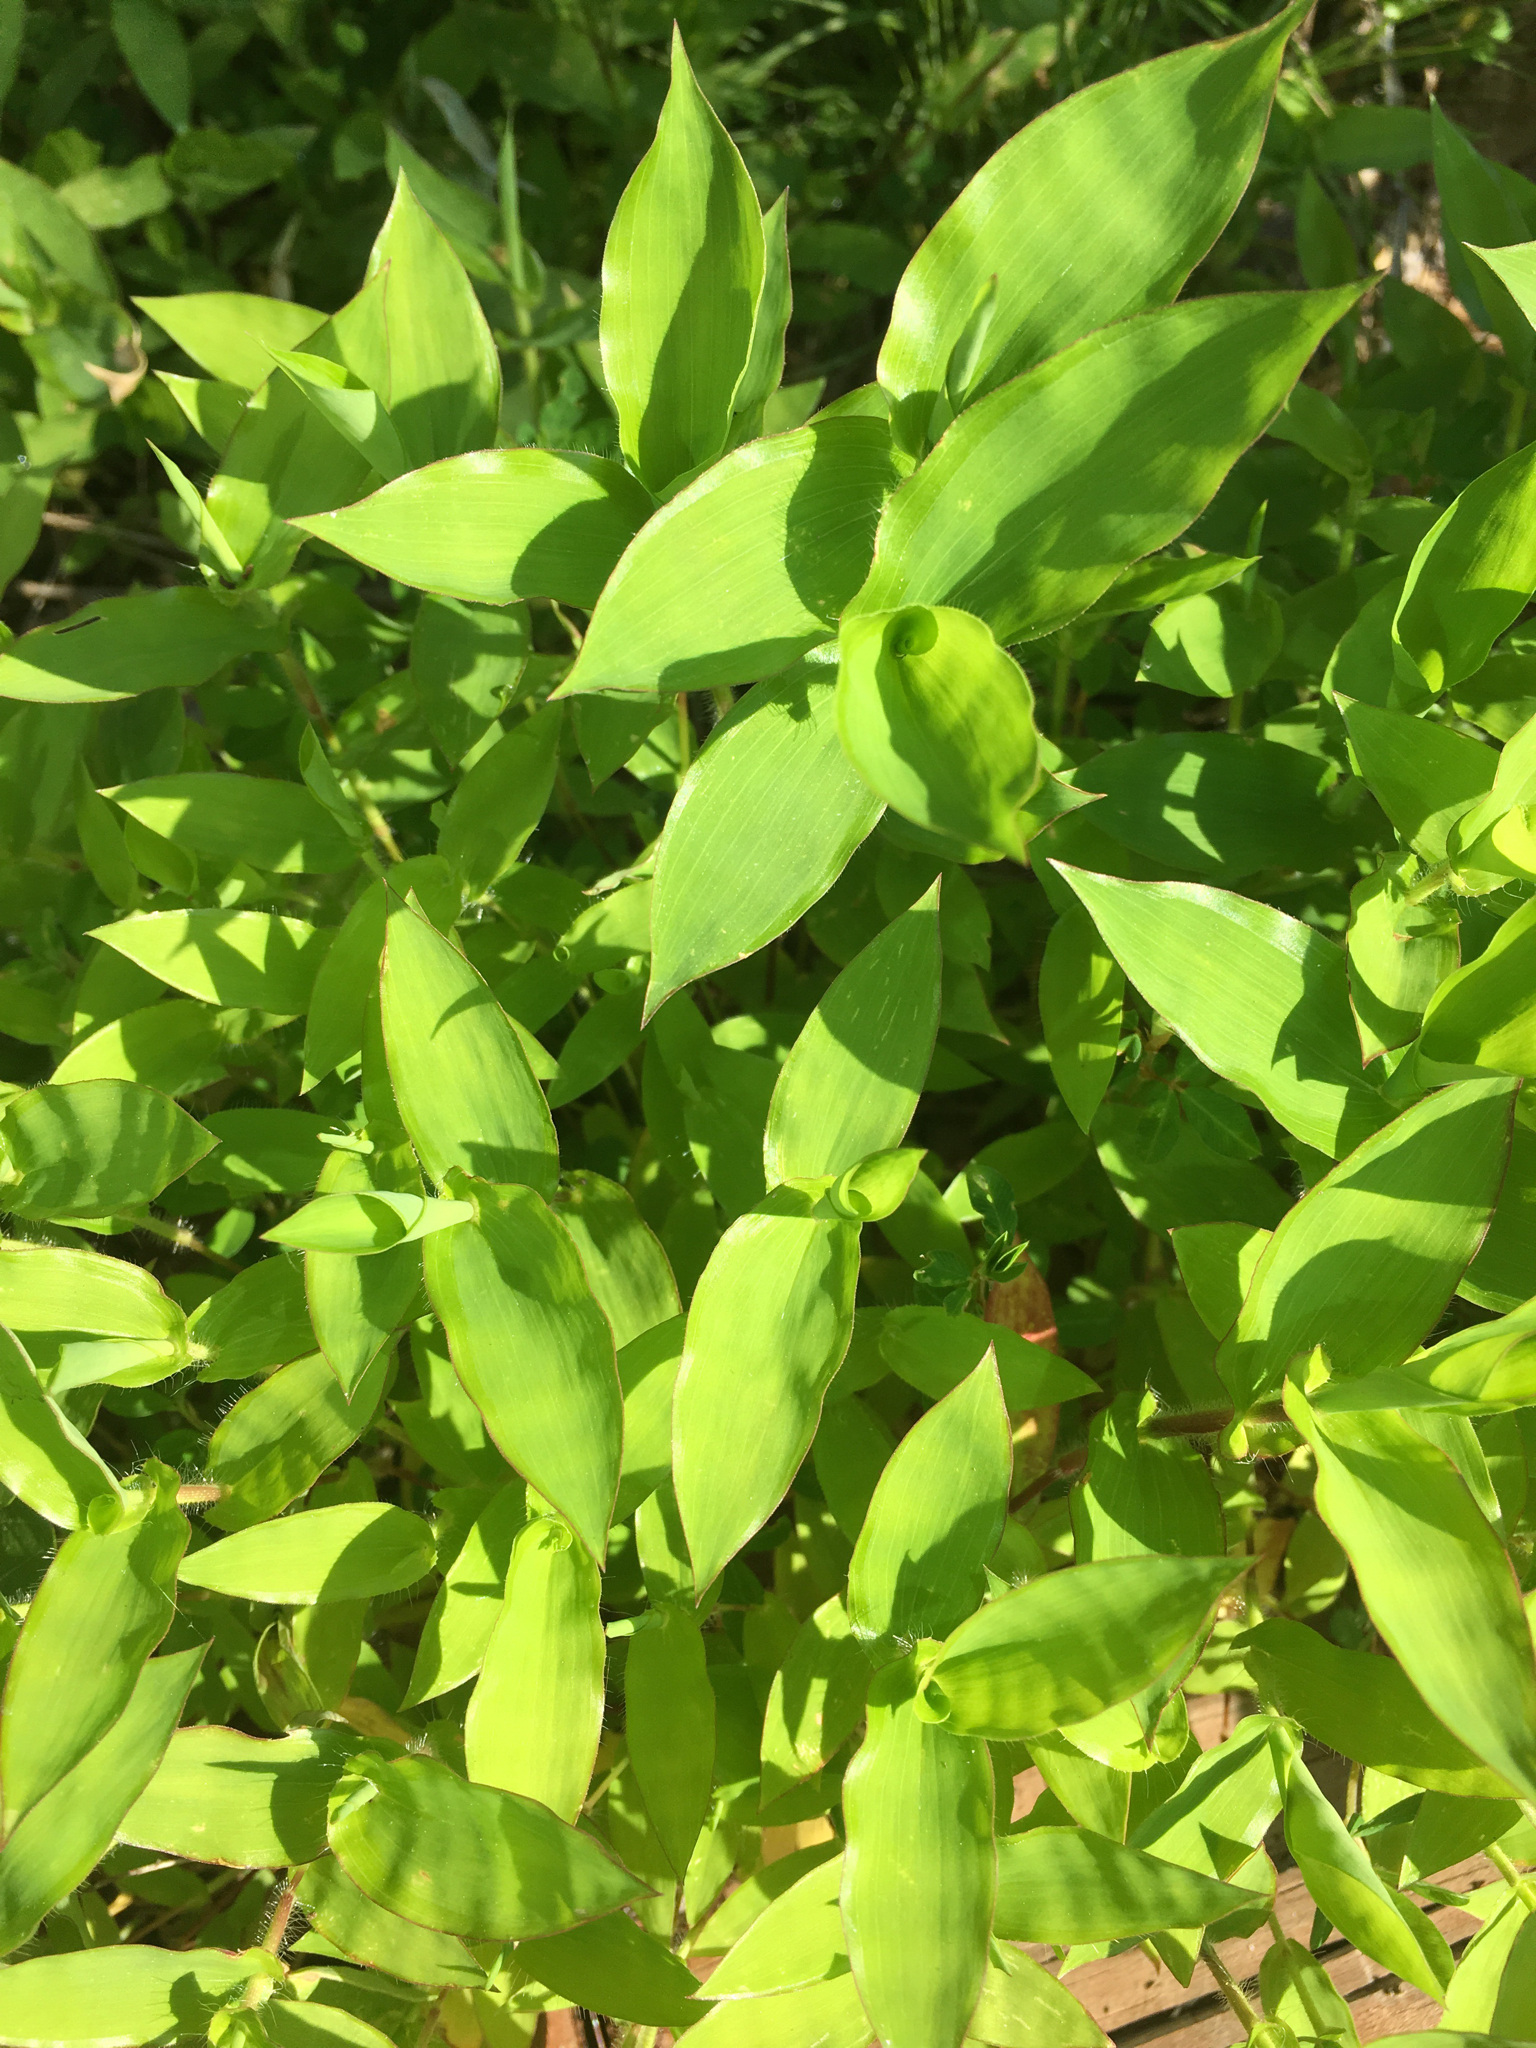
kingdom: Plantae
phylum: Tracheophyta
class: Liliopsida
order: Poales
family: Poaceae
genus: Arthraxon
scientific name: Arthraxon hispidus
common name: Small carpgrass
